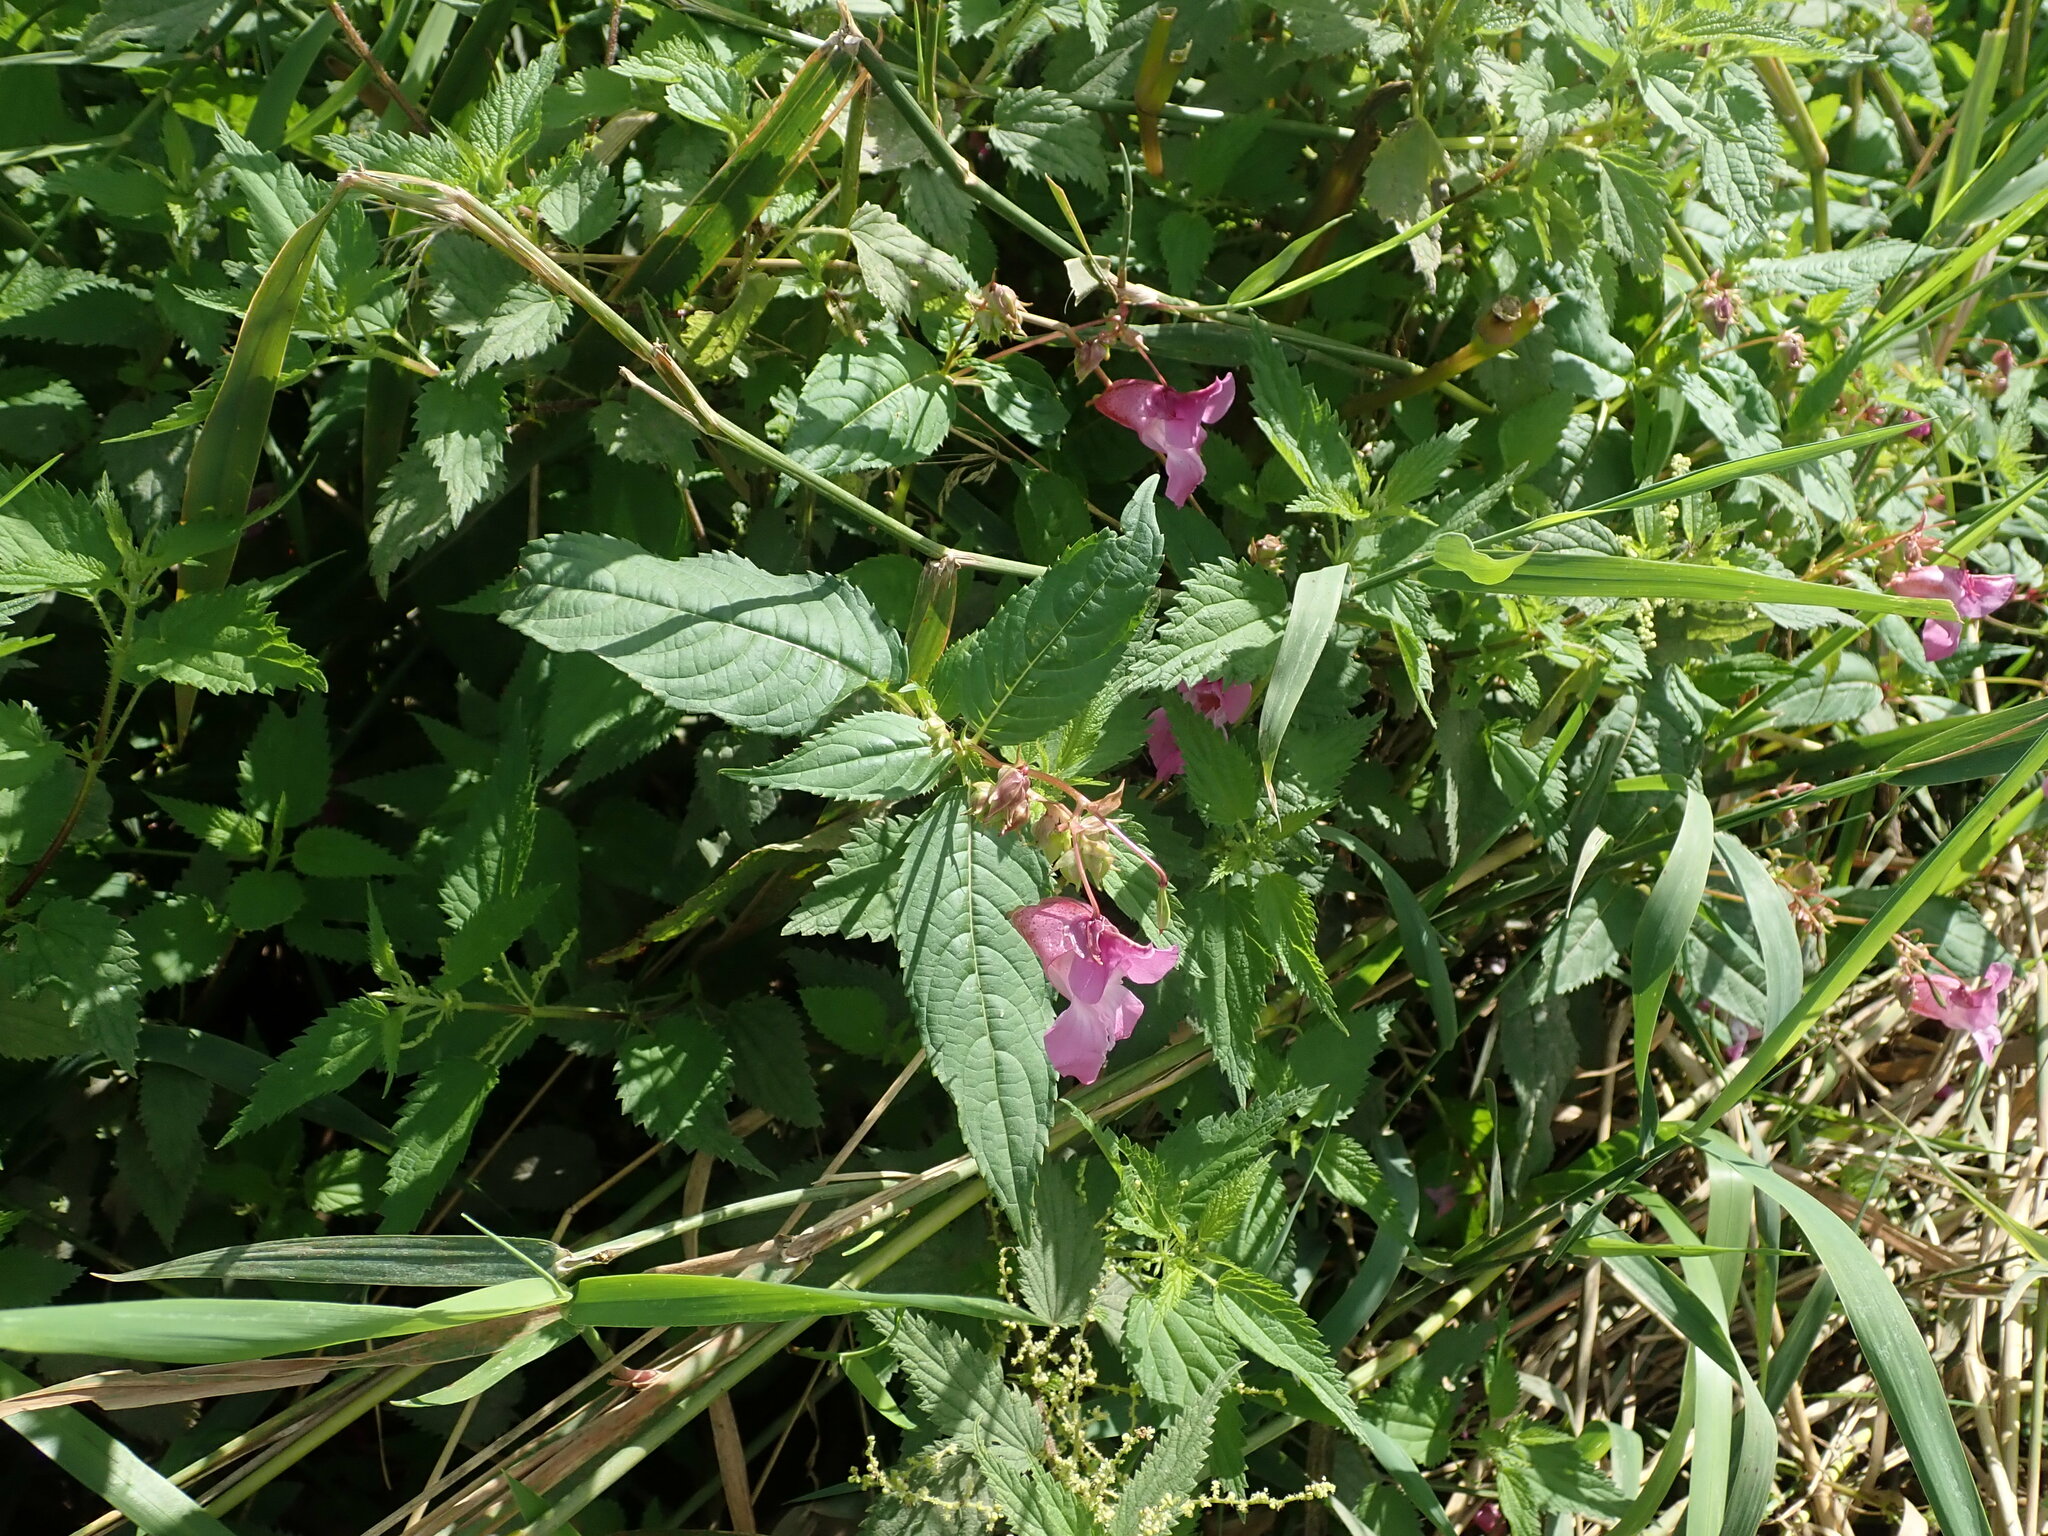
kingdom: Plantae
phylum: Tracheophyta
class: Magnoliopsida
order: Ericales
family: Balsaminaceae
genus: Impatiens
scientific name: Impatiens glandulifera
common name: Himalayan balsam
